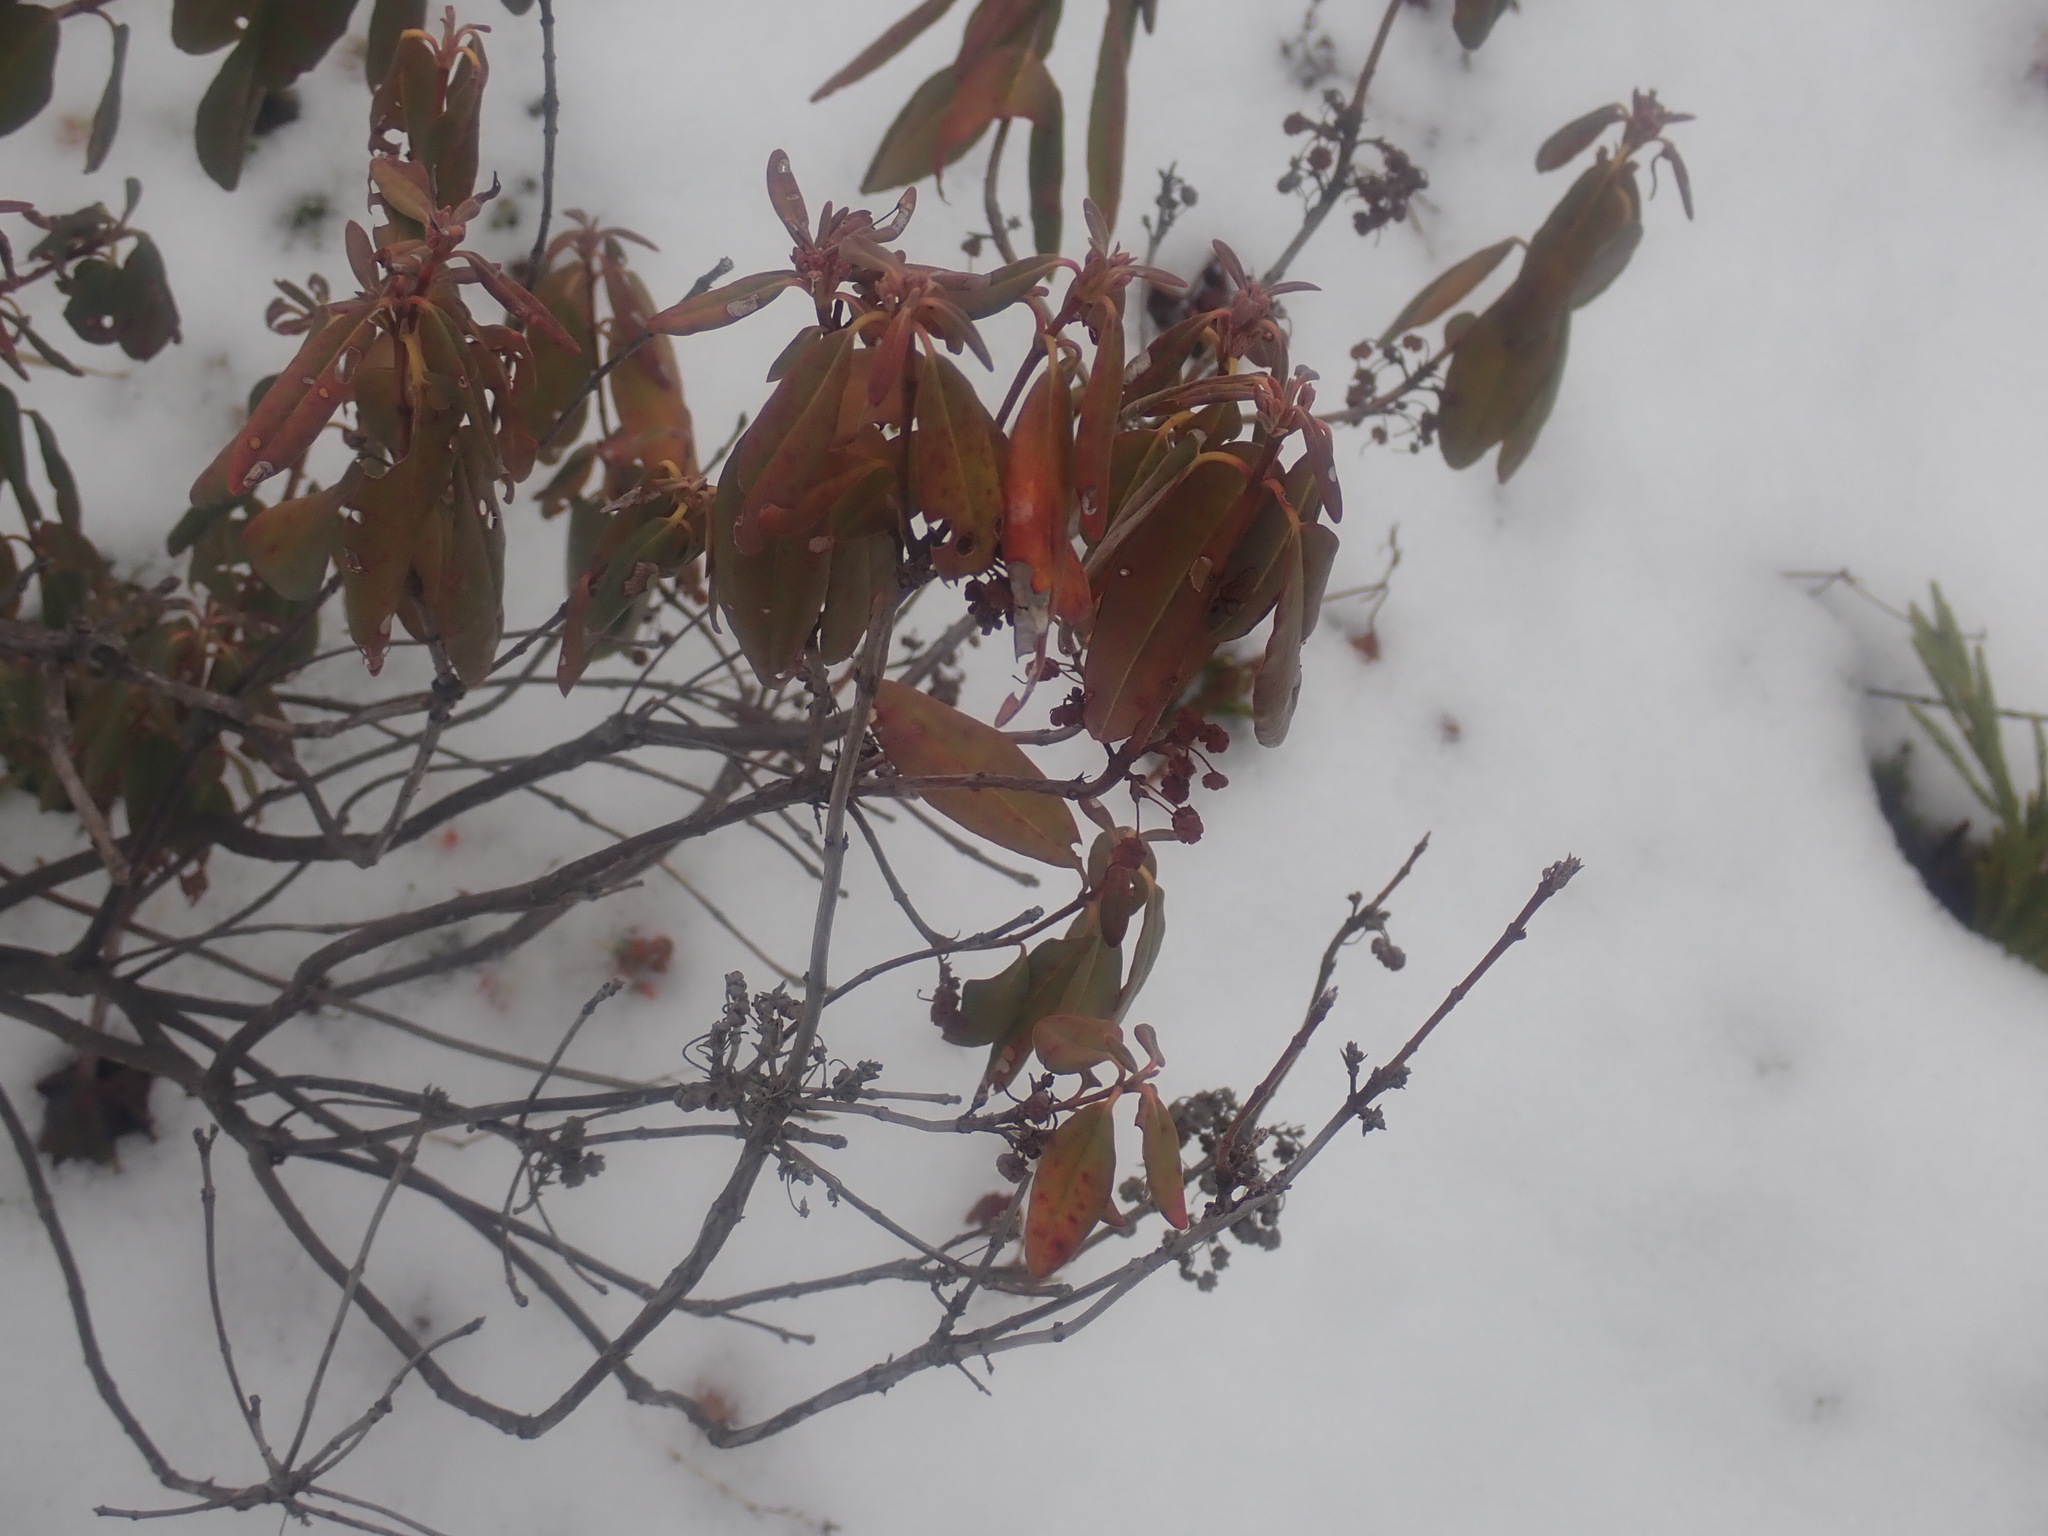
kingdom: Plantae
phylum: Tracheophyta
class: Magnoliopsida
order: Ericales
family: Ericaceae
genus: Kalmia
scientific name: Kalmia angustifolia
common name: Sheep-laurel
